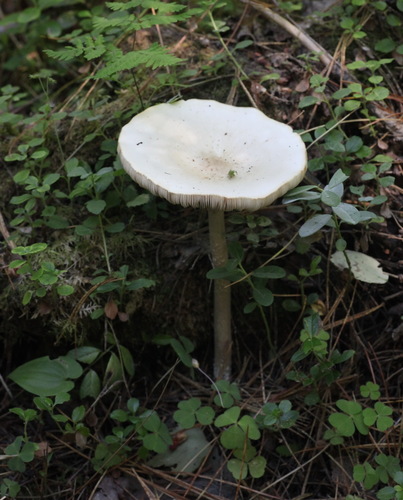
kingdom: Fungi
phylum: Basidiomycota
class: Agaricomycetes
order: Agaricales
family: Tricholomataceae
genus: Melanoleuca
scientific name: Melanoleuca strictipes
